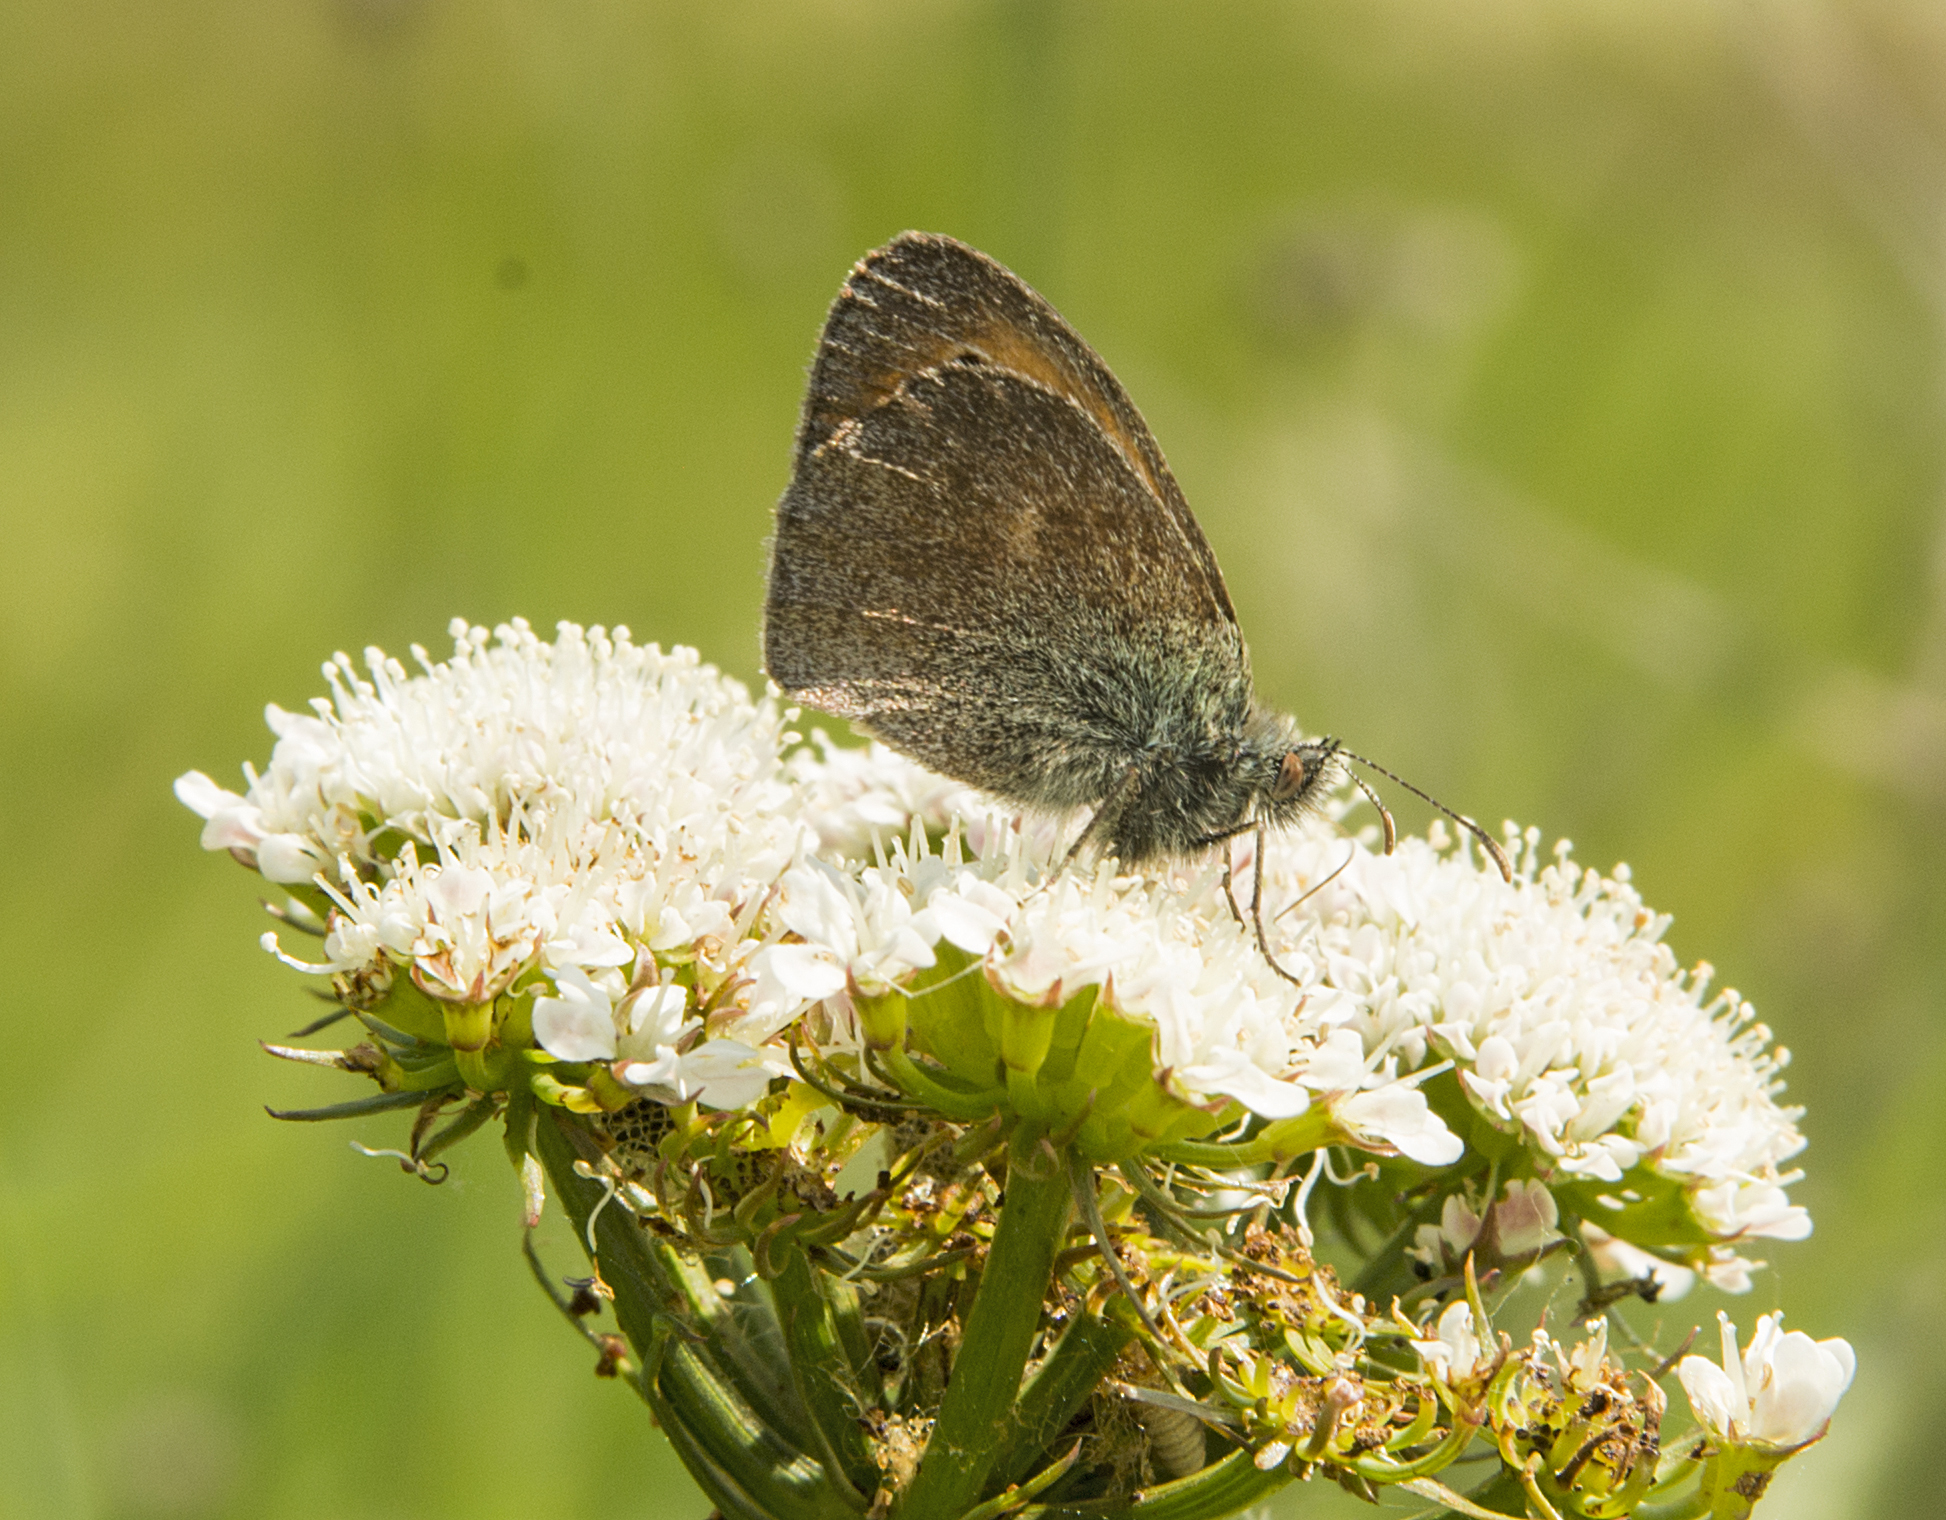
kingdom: Animalia
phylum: Arthropoda
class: Insecta
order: Lepidoptera
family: Nymphalidae
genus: Coenonympha
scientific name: Coenonympha pamphilus
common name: Small heath
